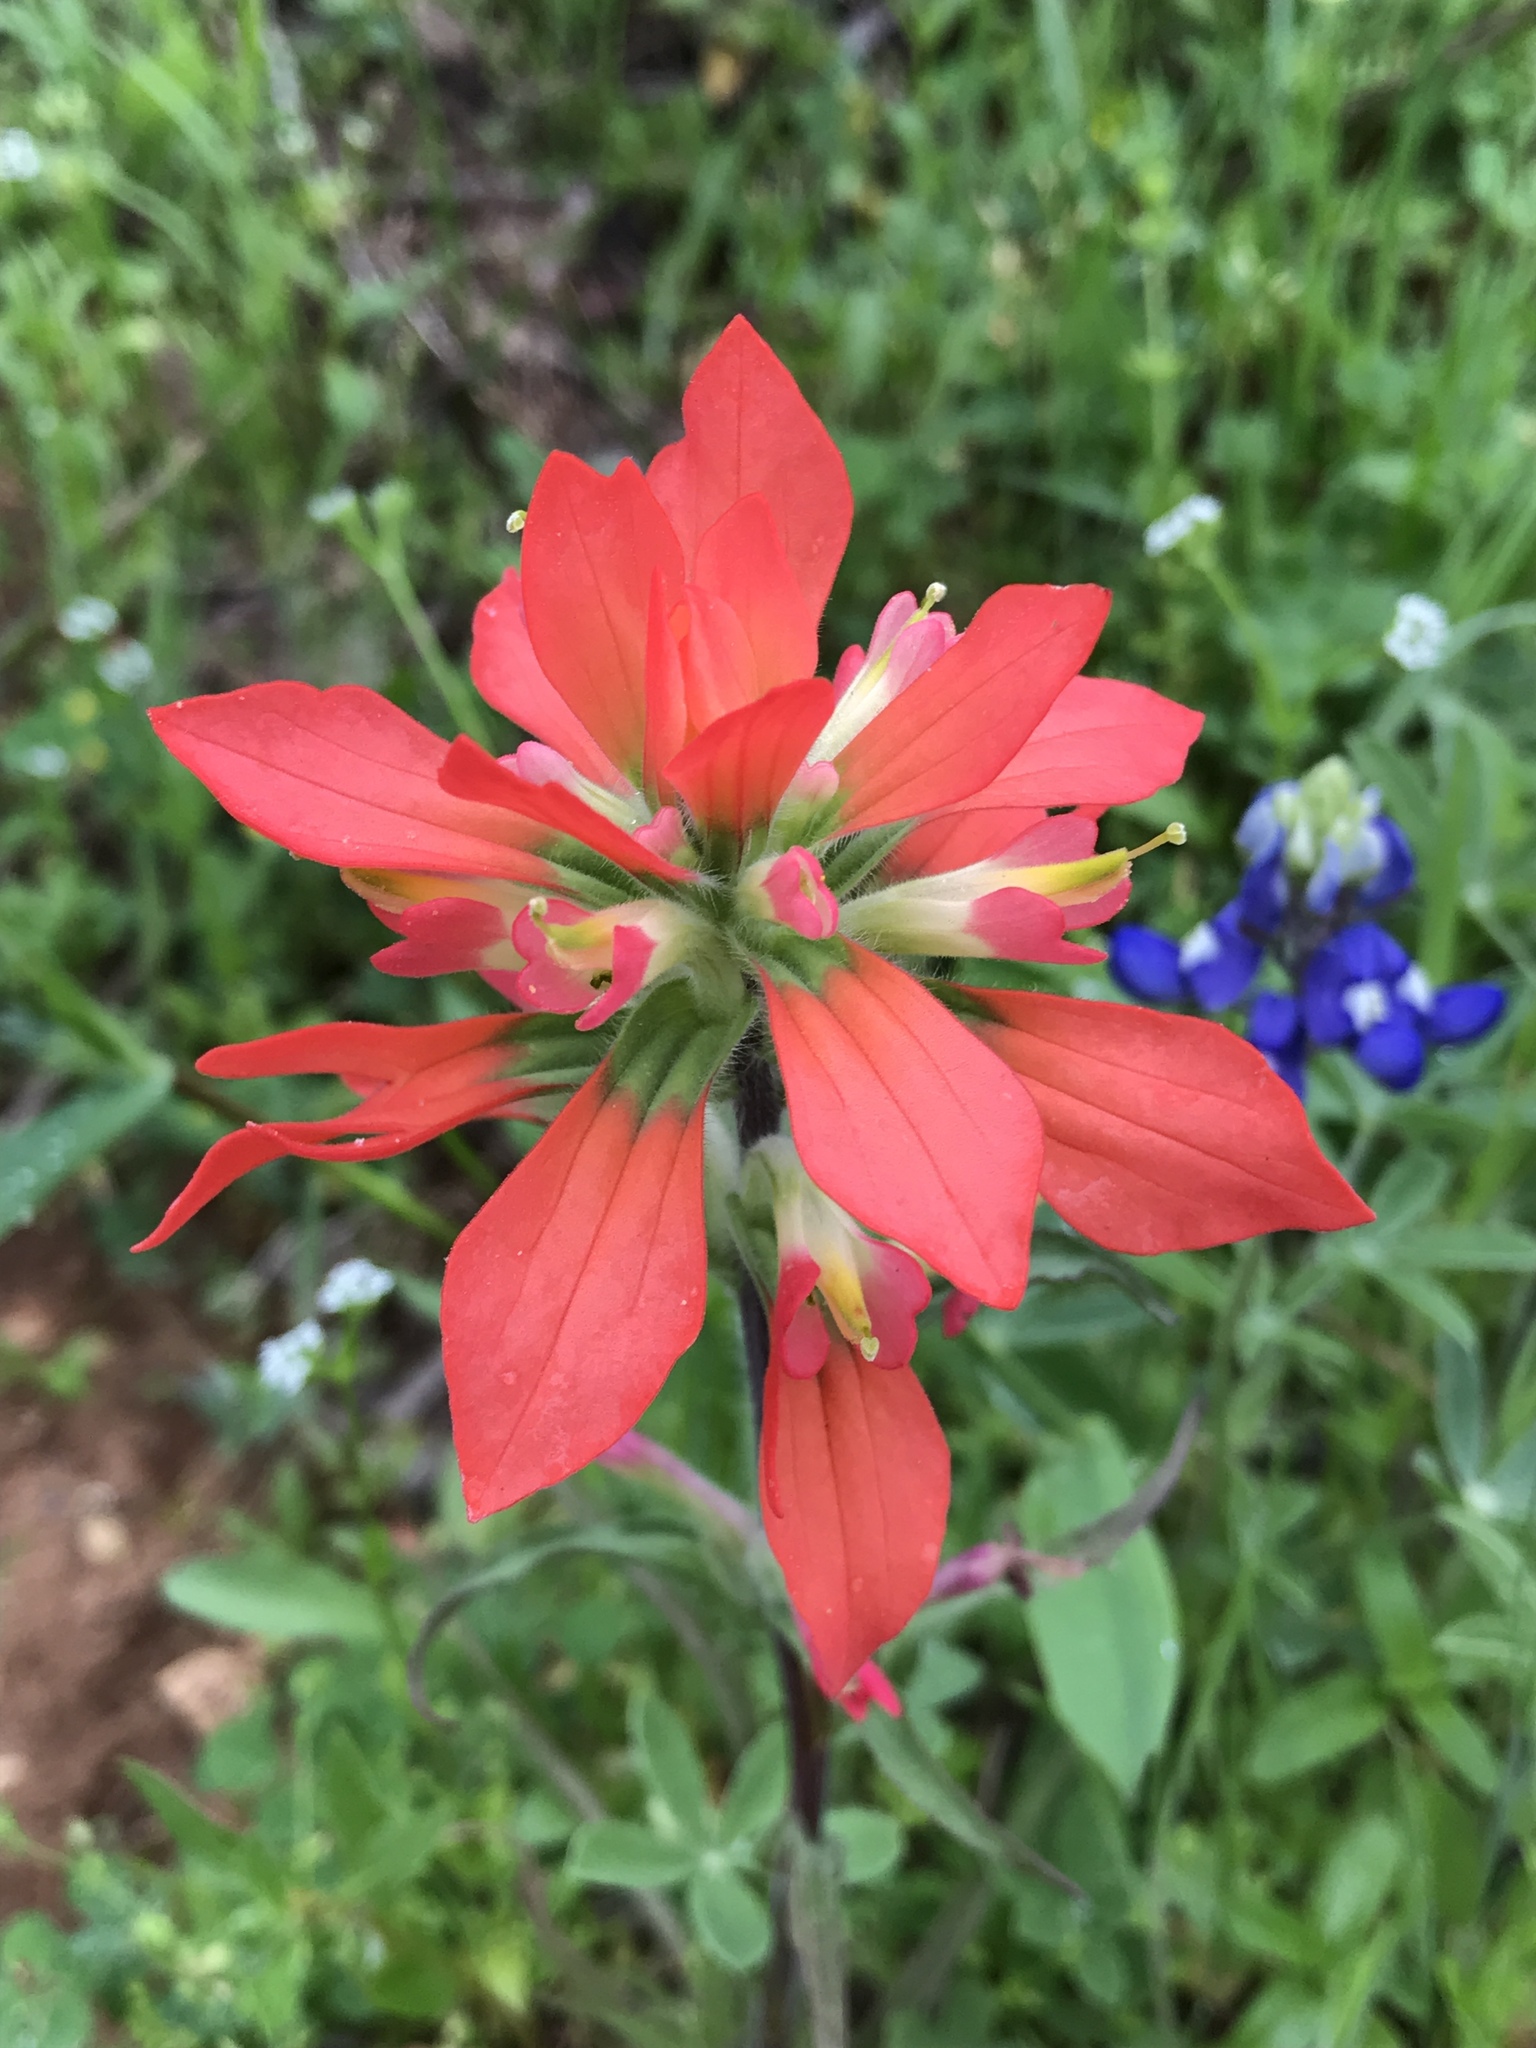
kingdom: Plantae
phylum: Tracheophyta
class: Magnoliopsida
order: Lamiales
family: Orobanchaceae
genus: Castilleja
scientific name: Castilleja indivisa
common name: Texas paintbrush
